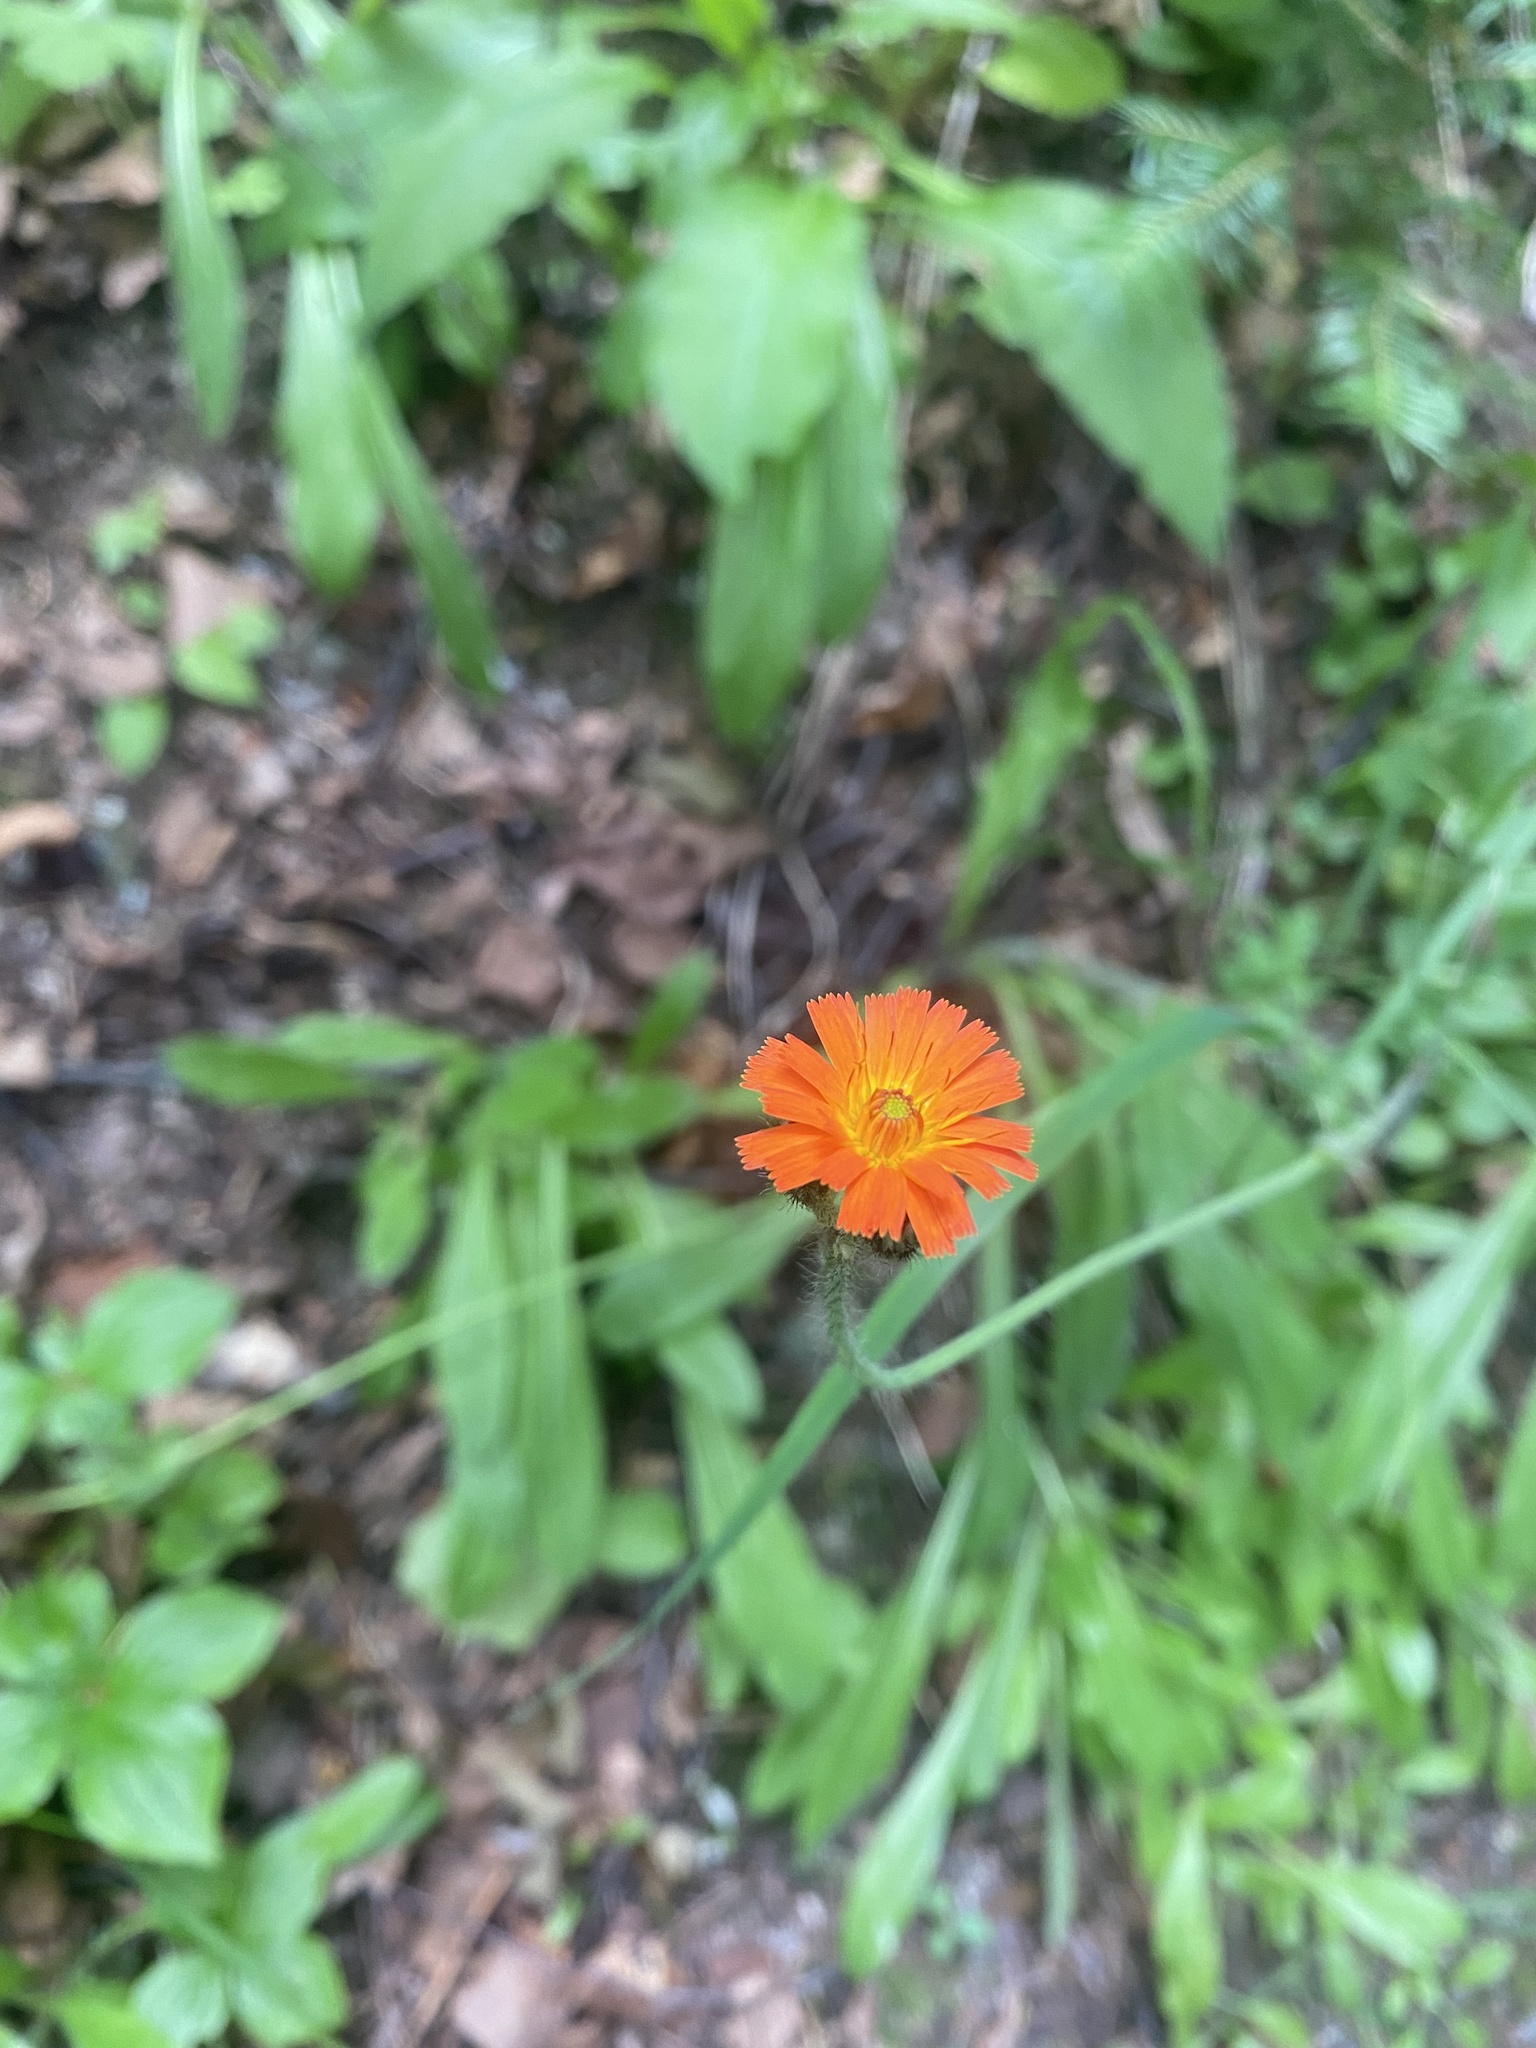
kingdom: Plantae
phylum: Tracheophyta
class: Magnoliopsida
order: Asterales
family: Asteraceae
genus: Pilosella
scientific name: Pilosella aurantiaca
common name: Fox-and-cubs
